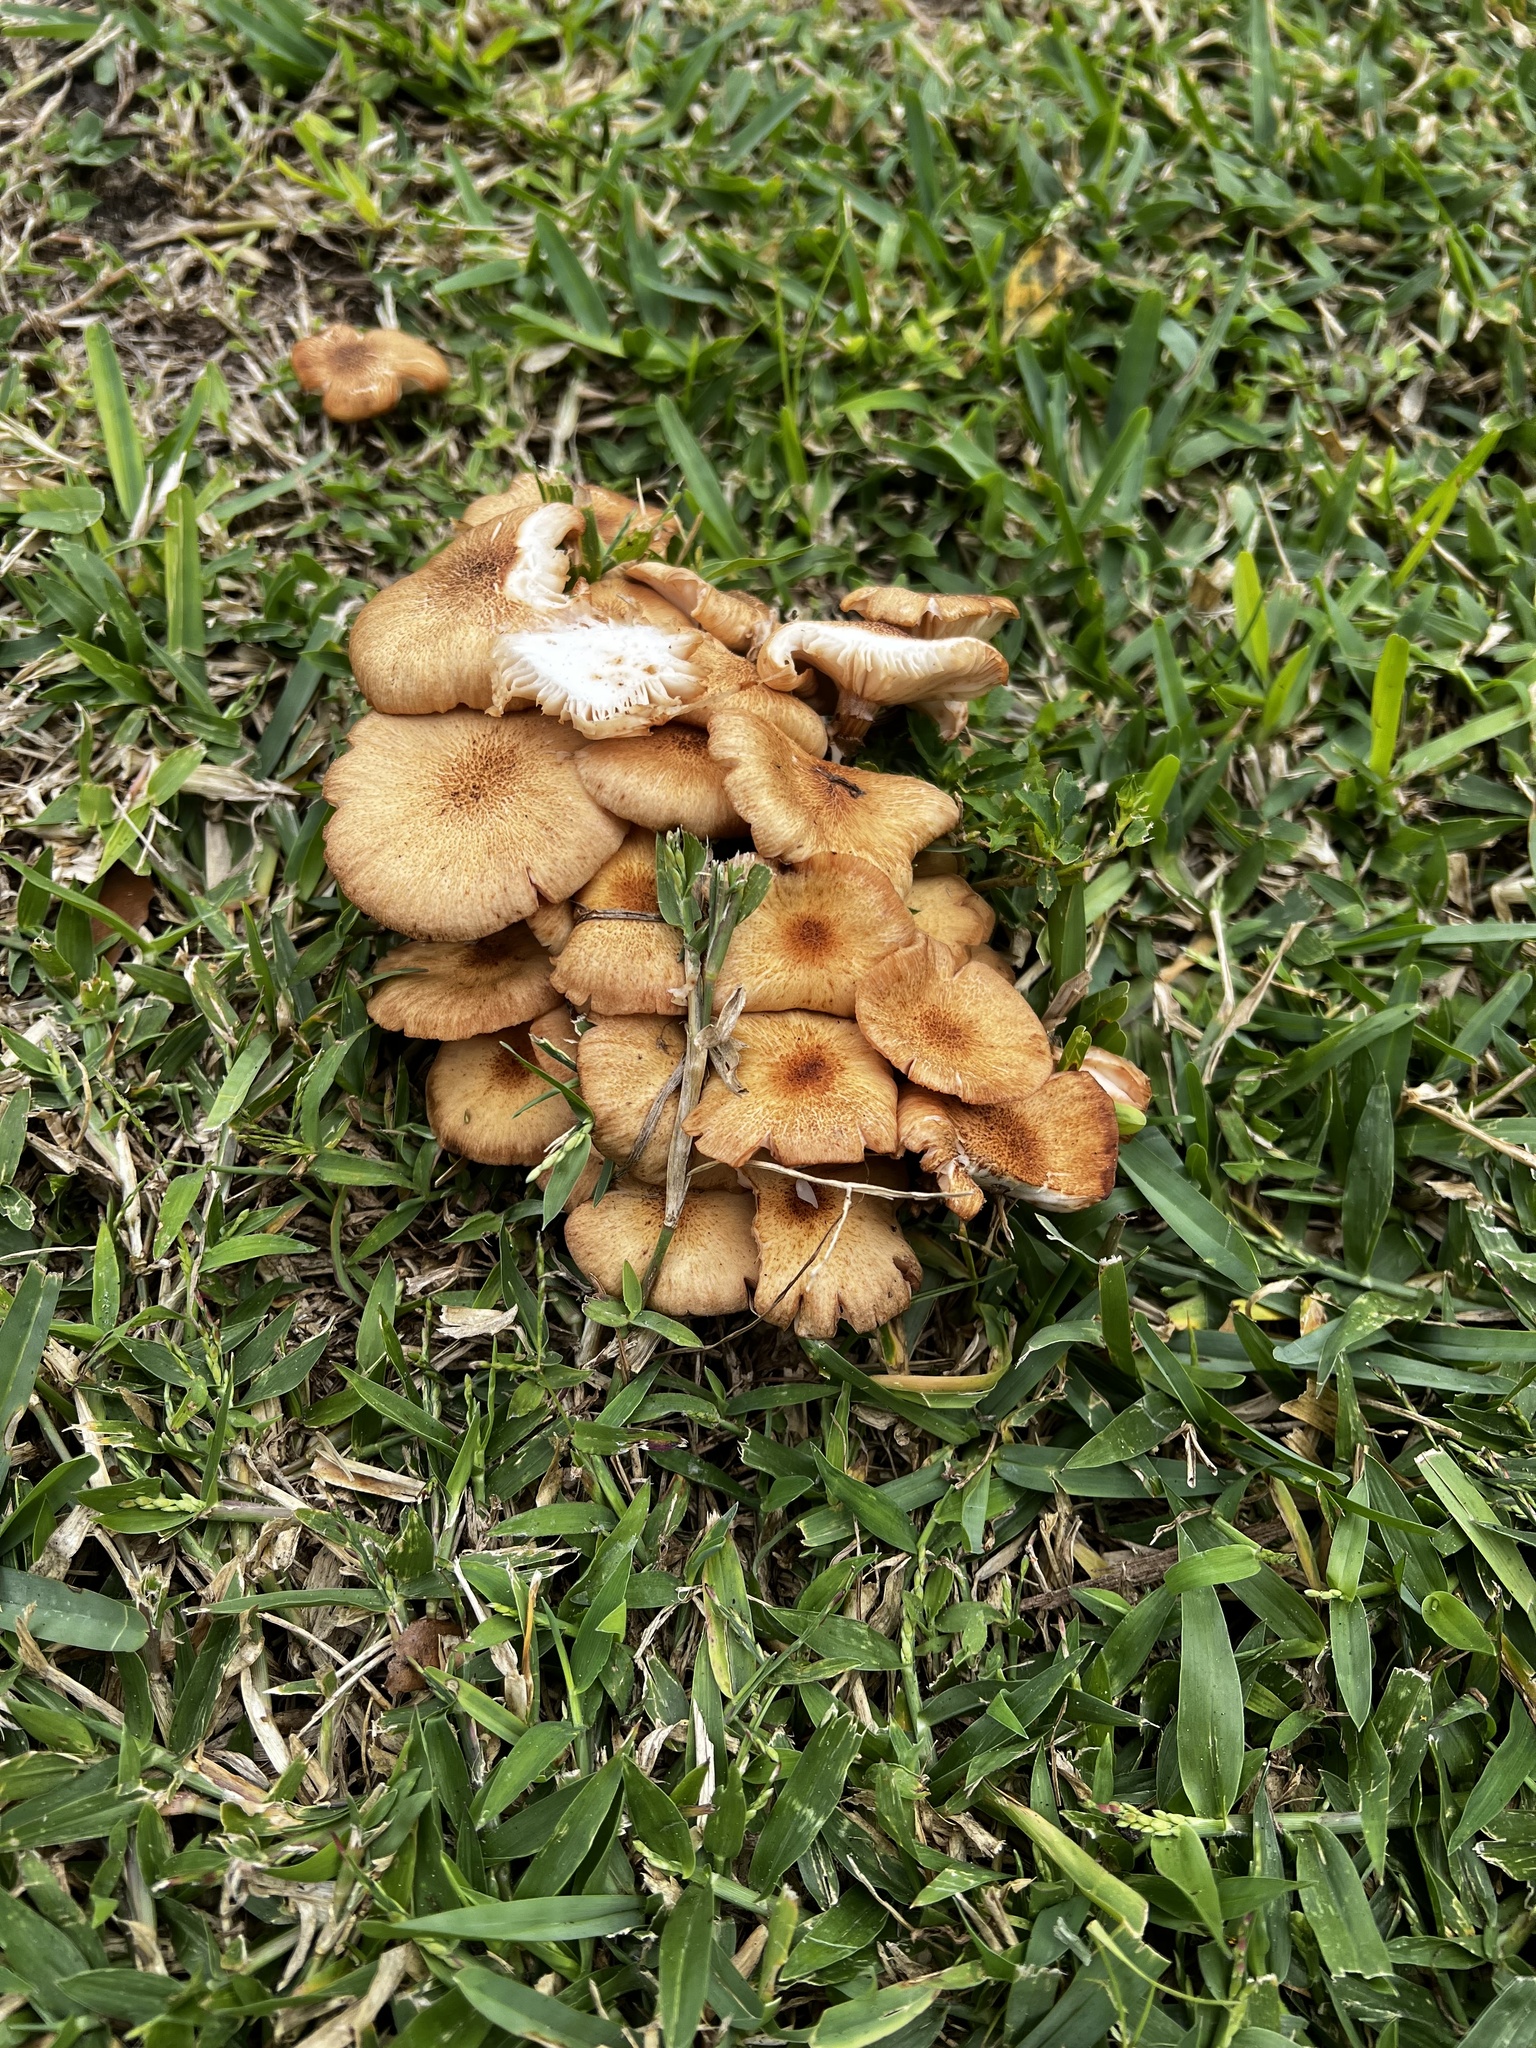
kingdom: Fungi
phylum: Basidiomycota
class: Agaricomycetes
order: Agaricales
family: Physalacriaceae
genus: Desarmillaria
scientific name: Desarmillaria caespitosa
